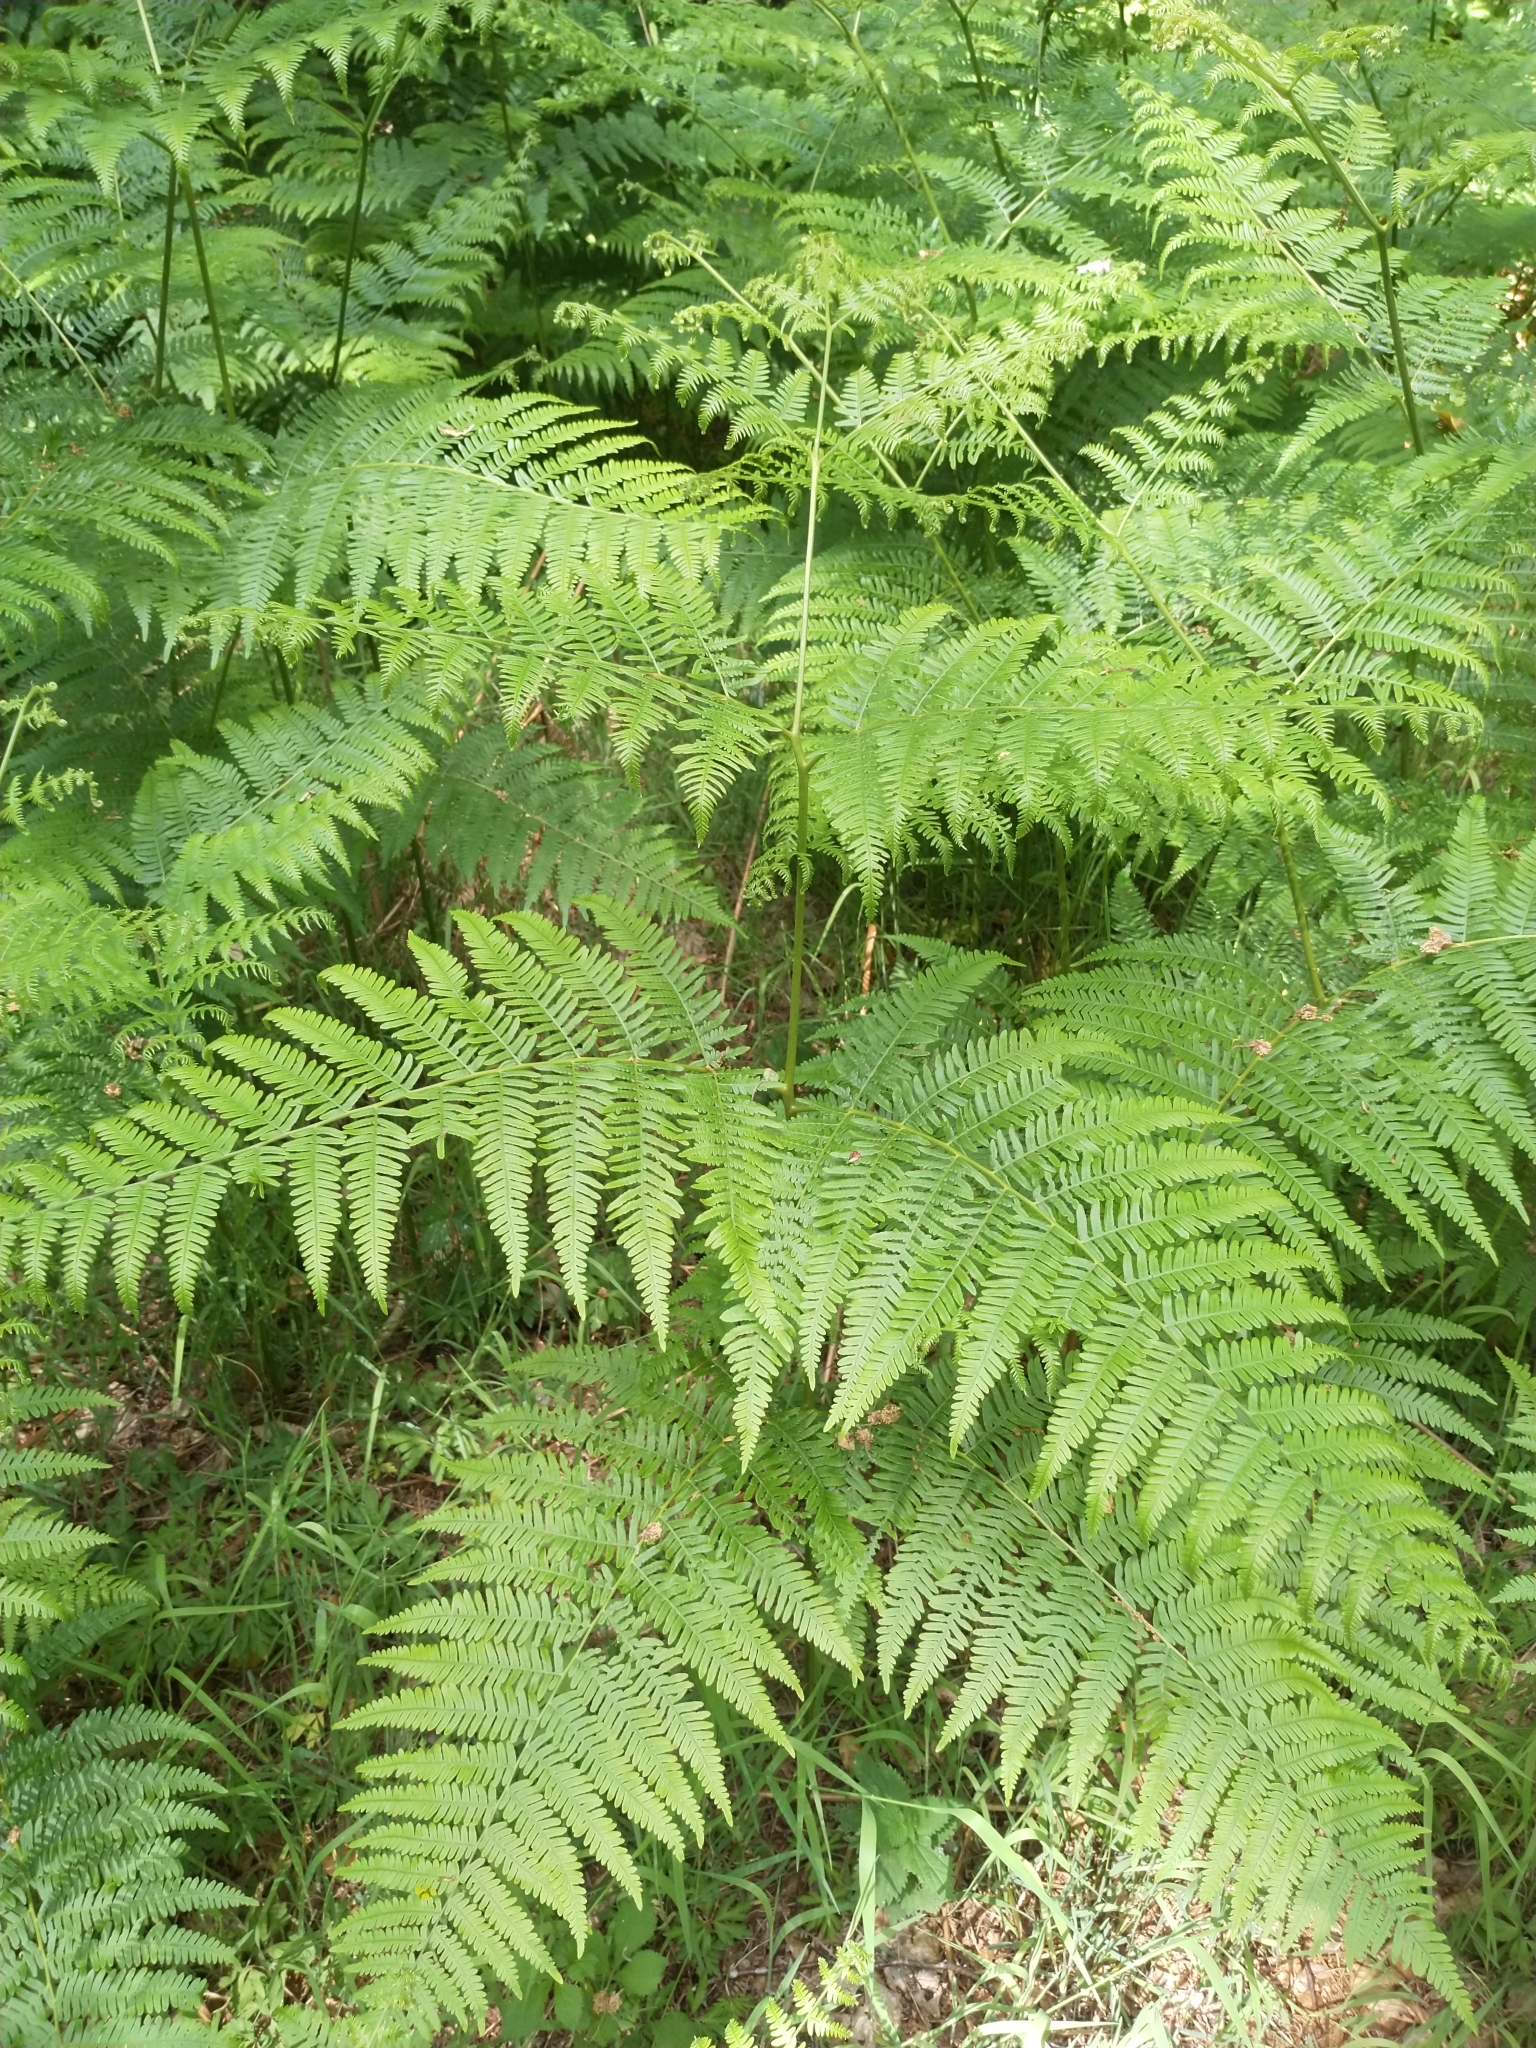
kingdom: Plantae
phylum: Tracheophyta
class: Polypodiopsida
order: Polypodiales
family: Dennstaedtiaceae
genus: Pteridium
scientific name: Pteridium aquilinum
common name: Bracken
